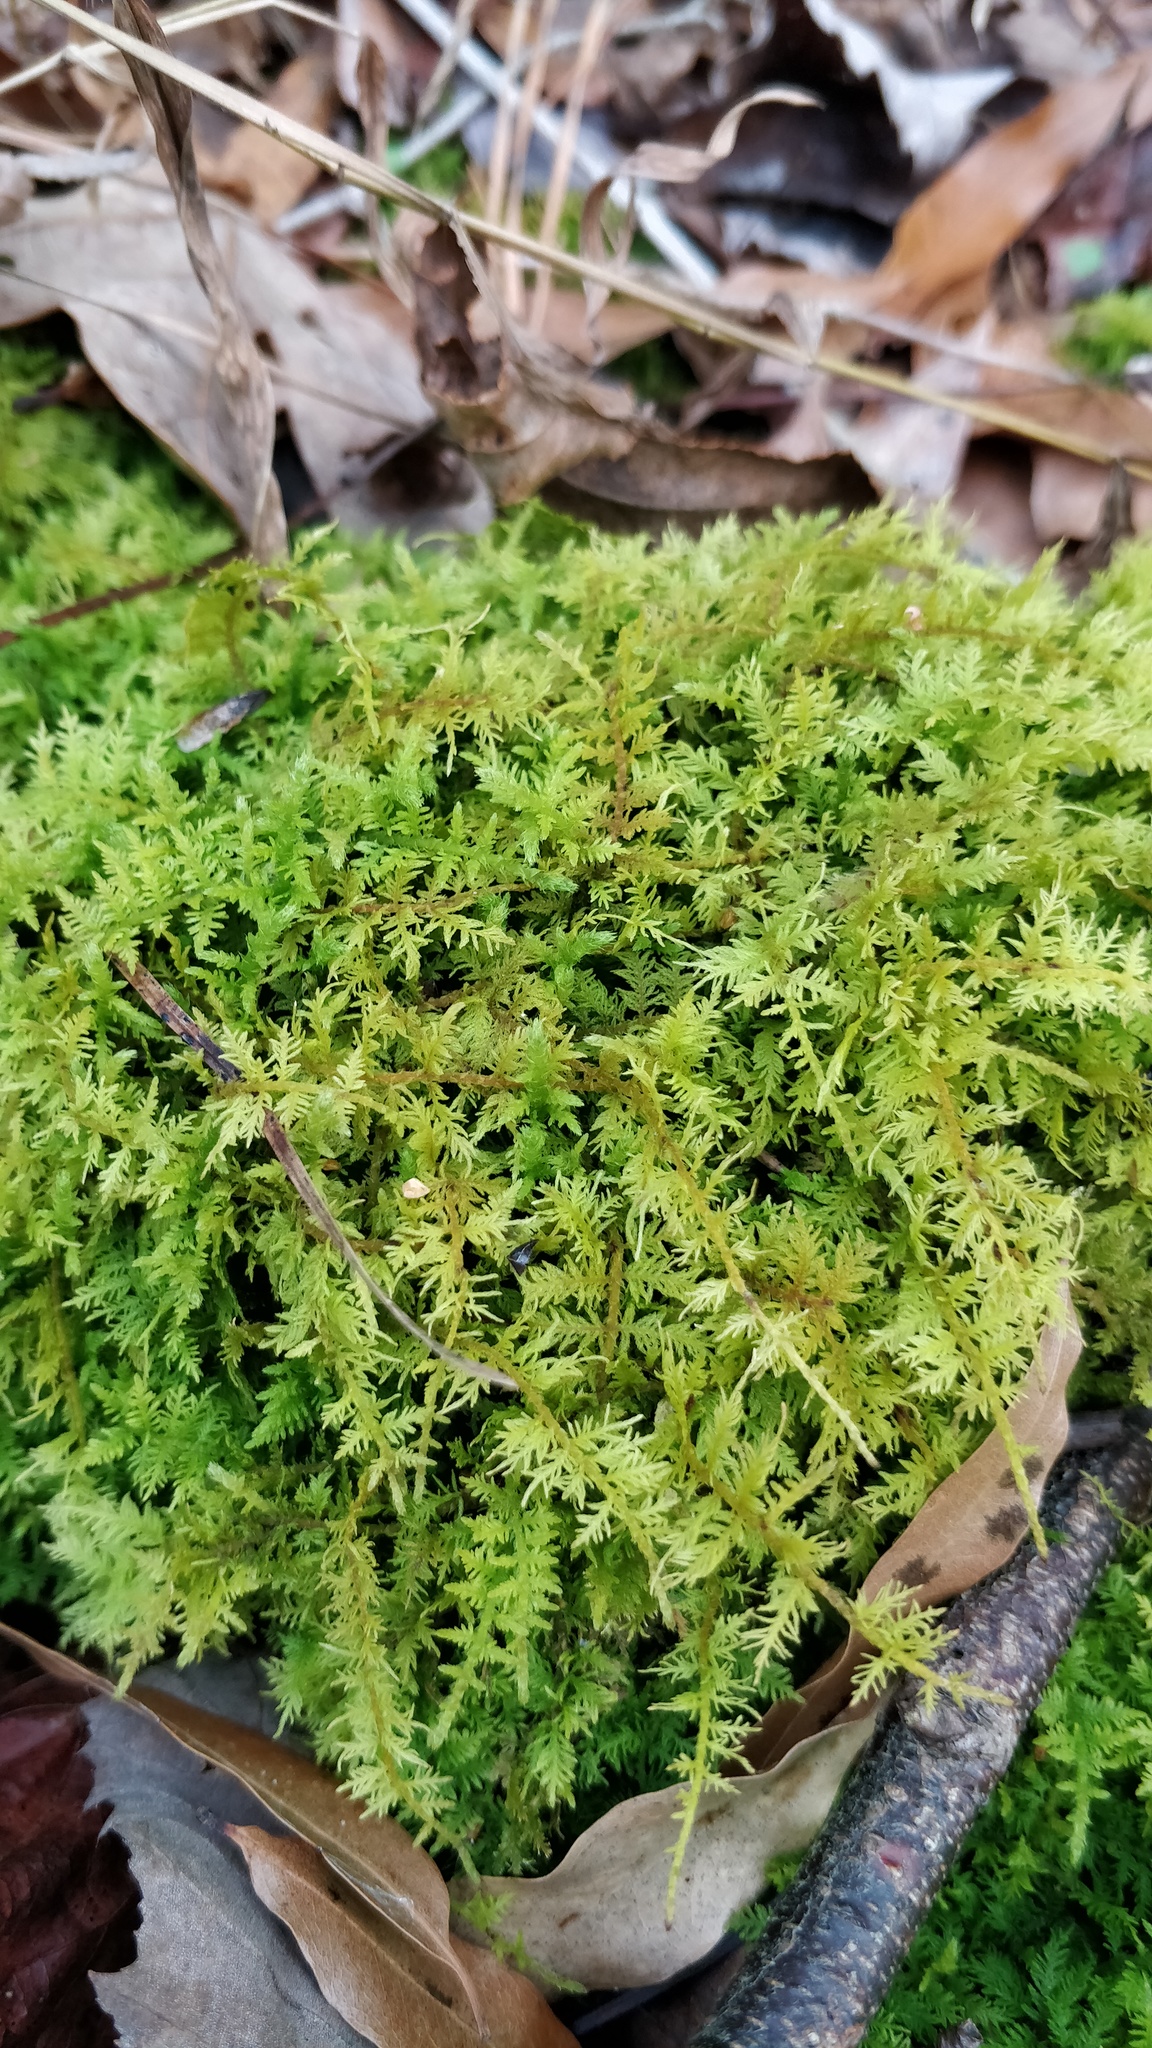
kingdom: Plantae
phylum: Bryophyta
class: Bryopsida
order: Hypnales
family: Thuidiaceae
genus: Thuidium
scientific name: Thuidium delicatulum
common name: Delicate fern moss
